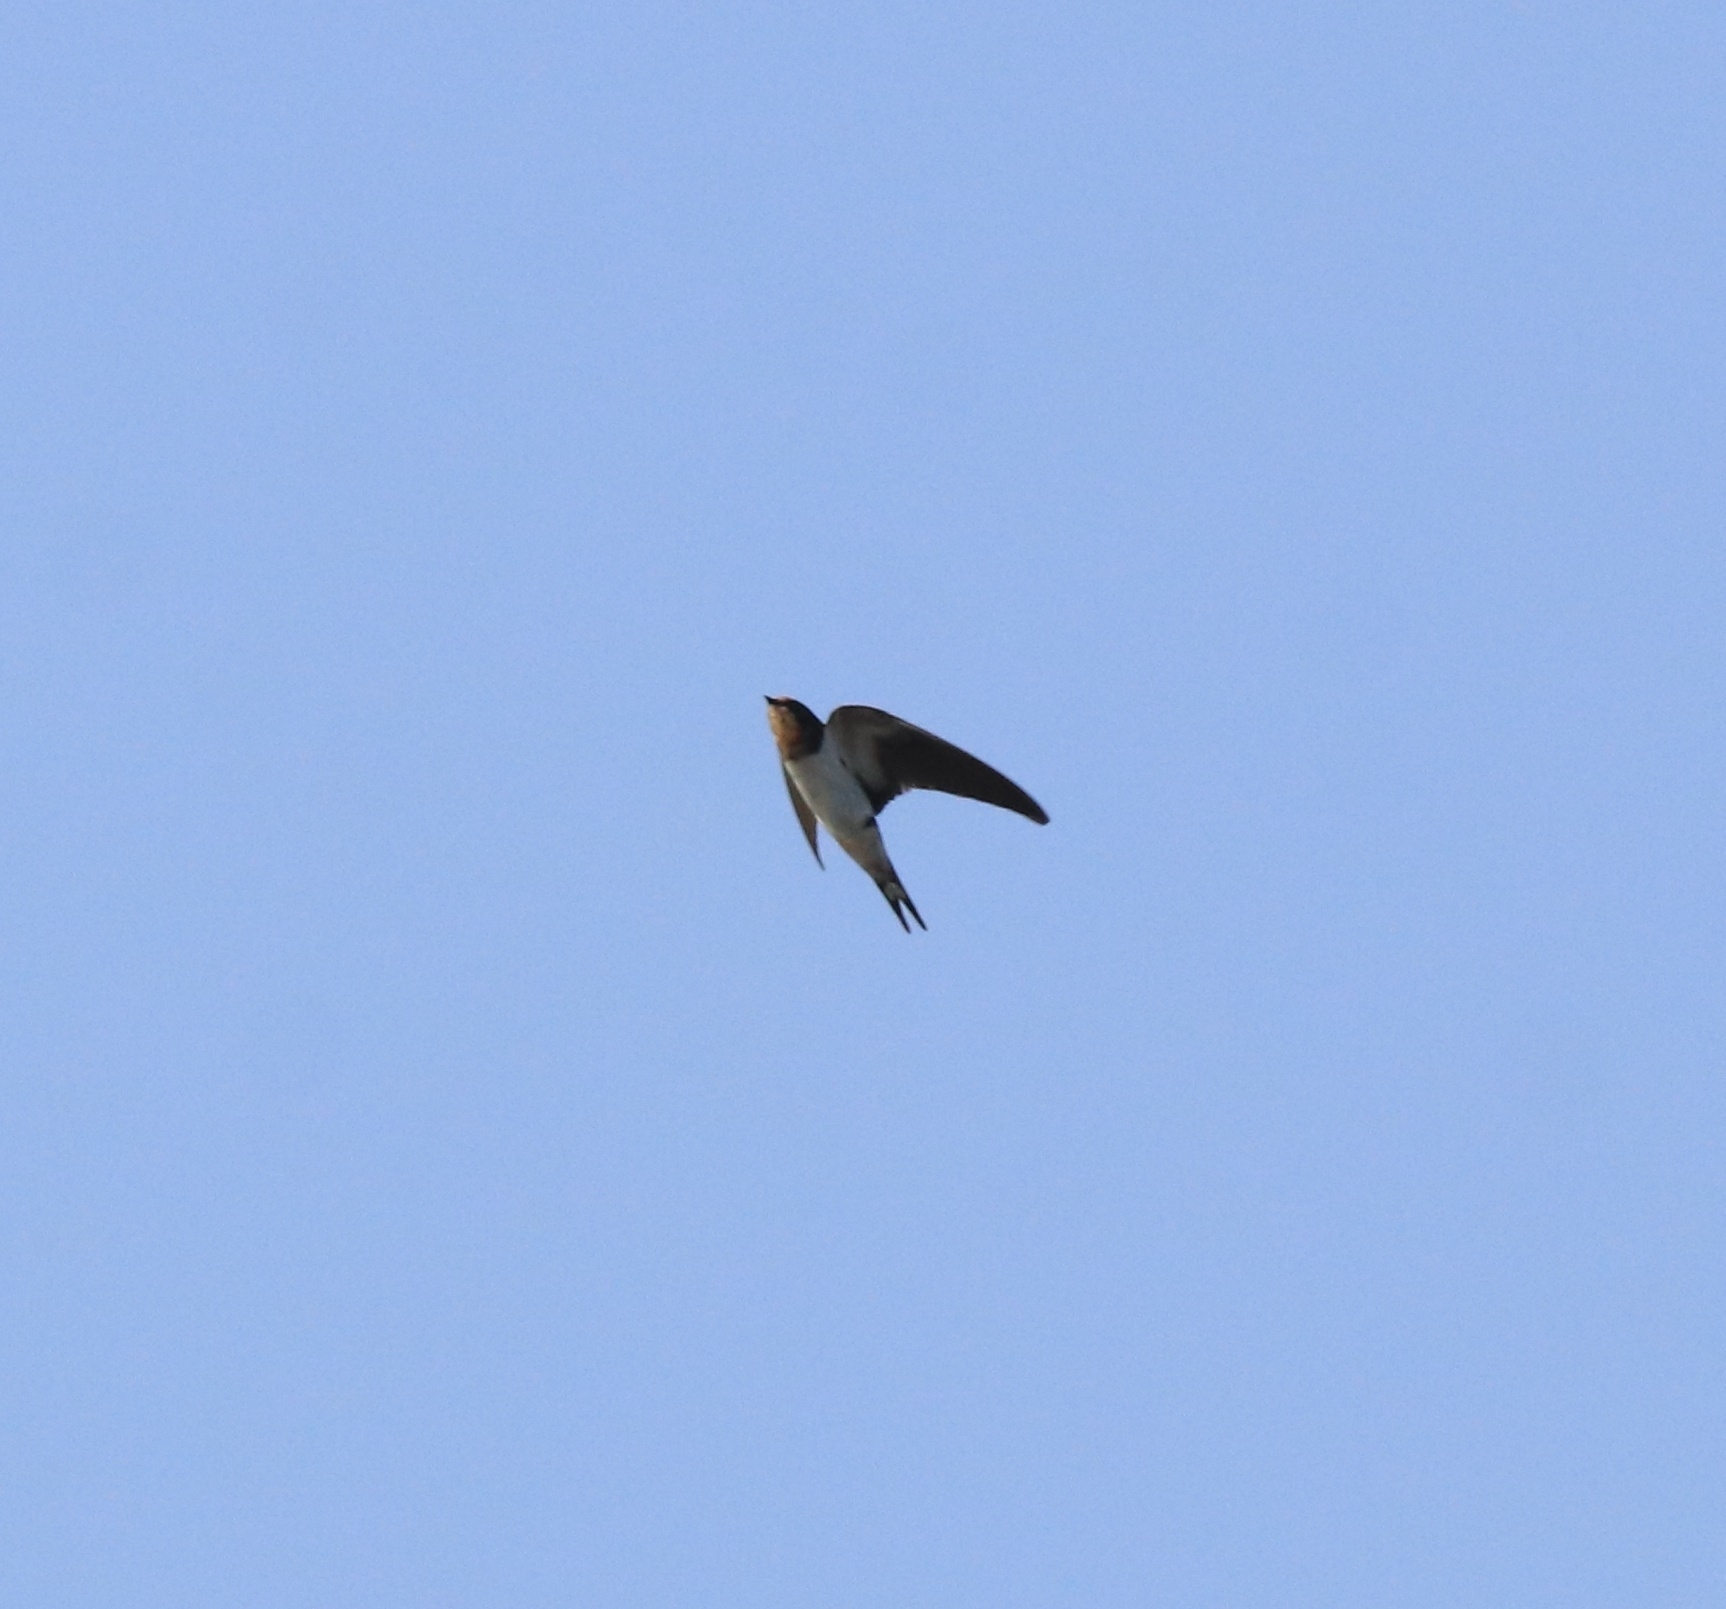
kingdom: Animalia
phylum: Chordata
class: Aves
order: Passeriformes
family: Hirundinidae
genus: Hirundo
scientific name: Hirundo rustica
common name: Barn swallow
